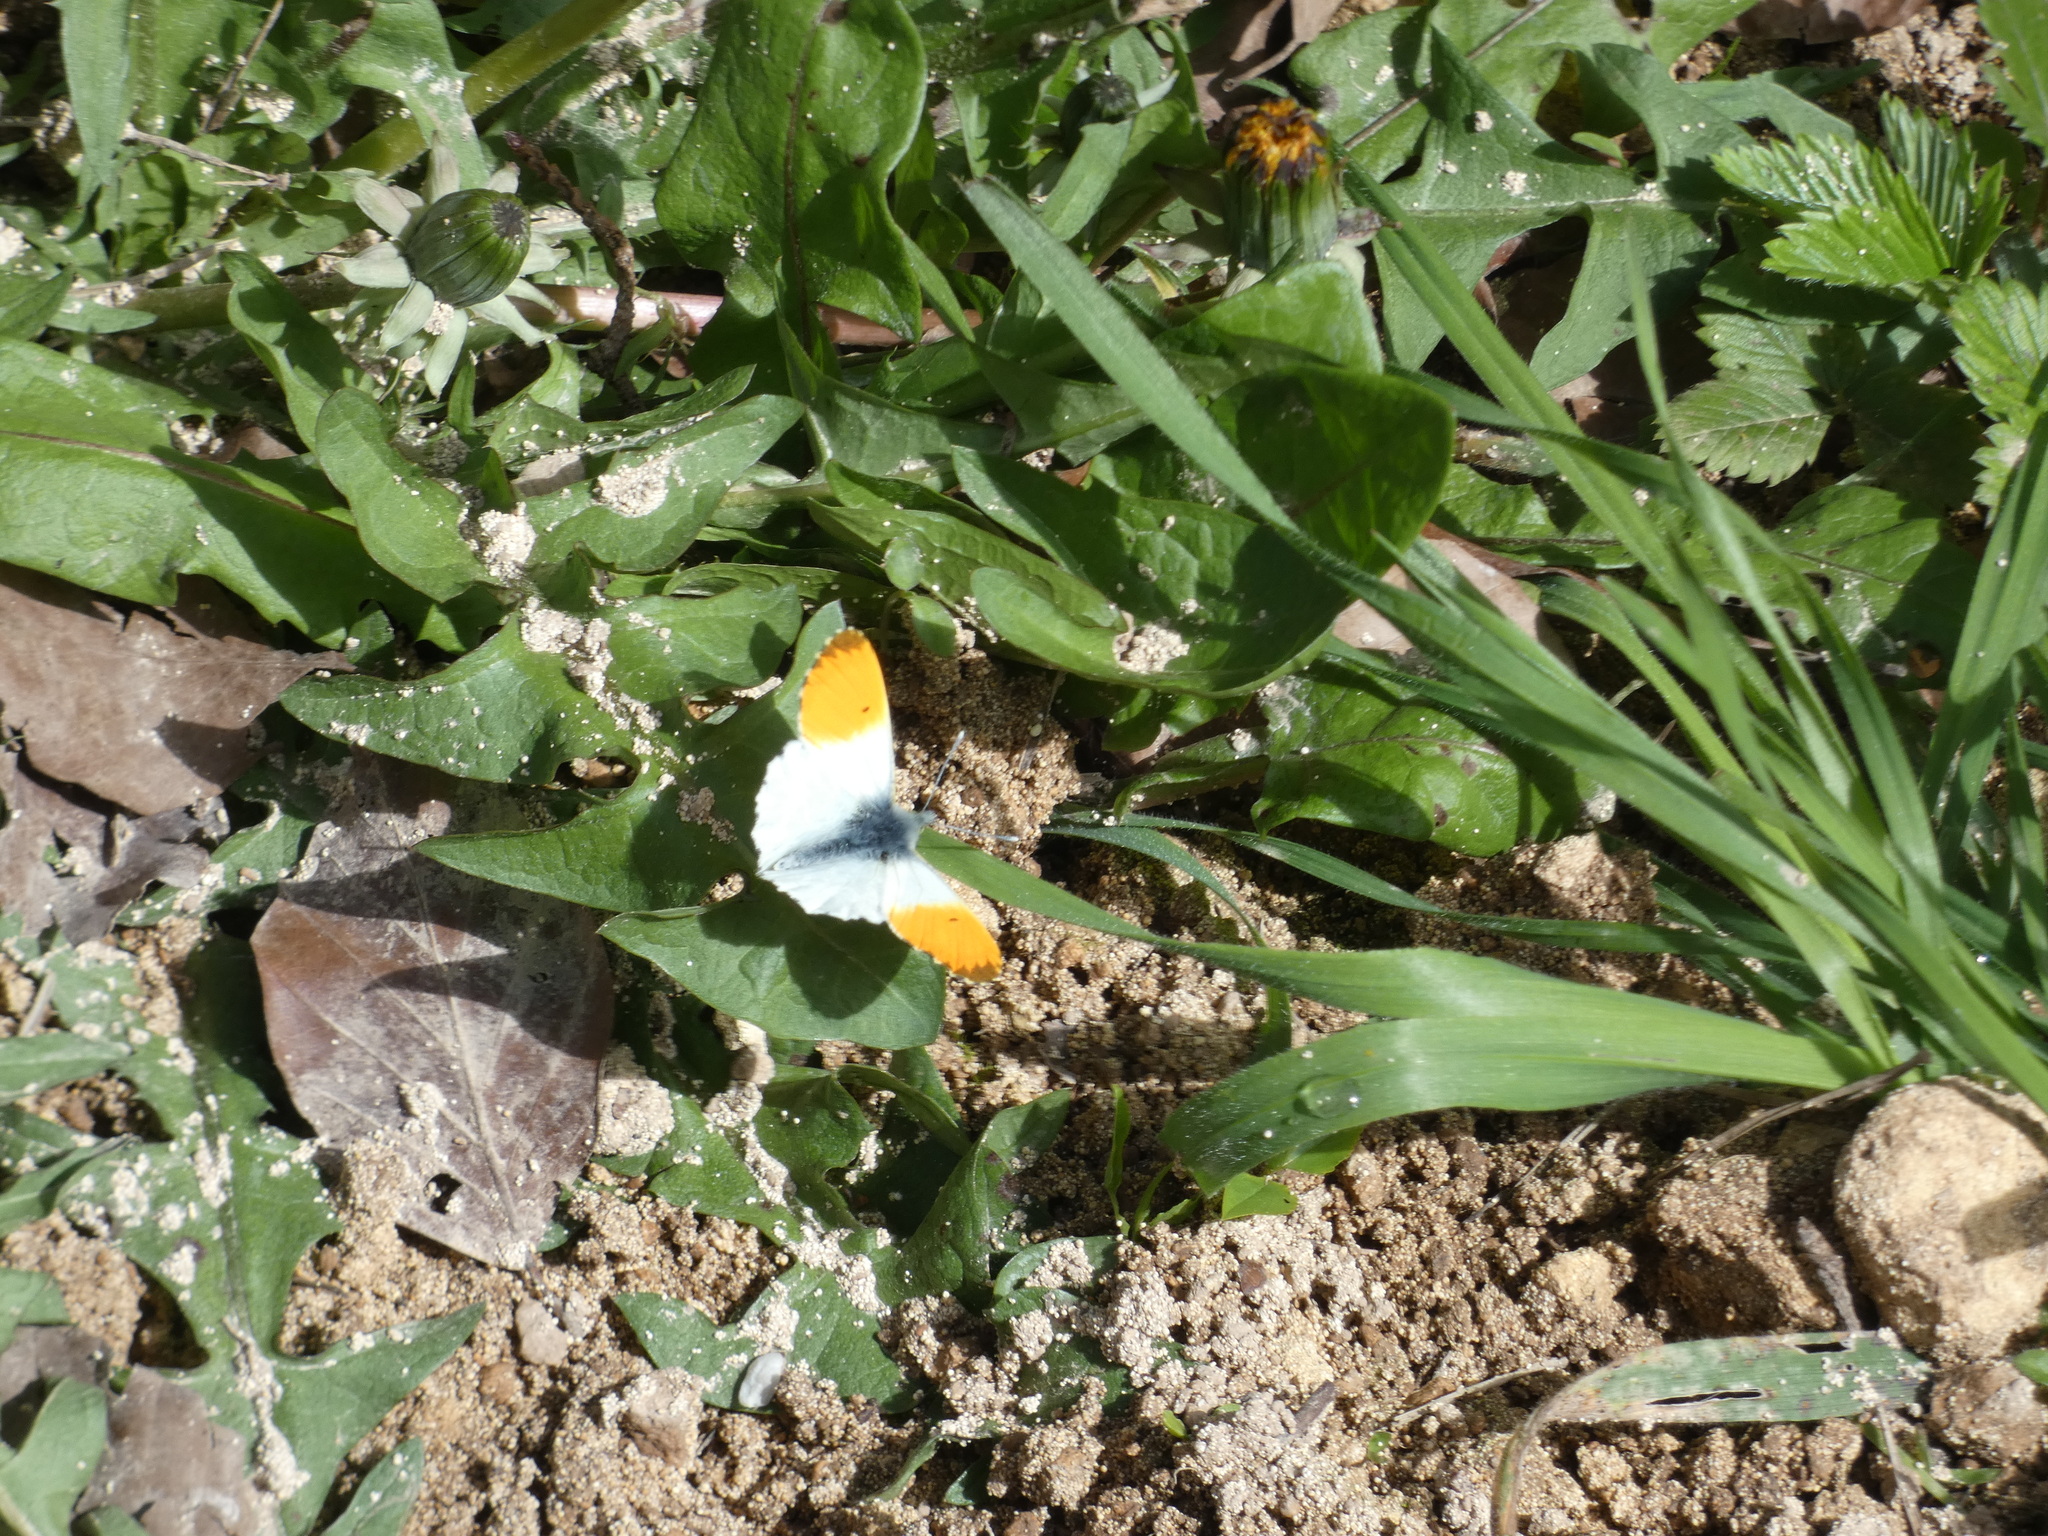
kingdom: Animalia
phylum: Arthropoda
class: Insecta
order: Lepidoptera
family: Pieridae
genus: Anthocharis
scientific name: Anthocharis cardamines
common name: Orange-tip
